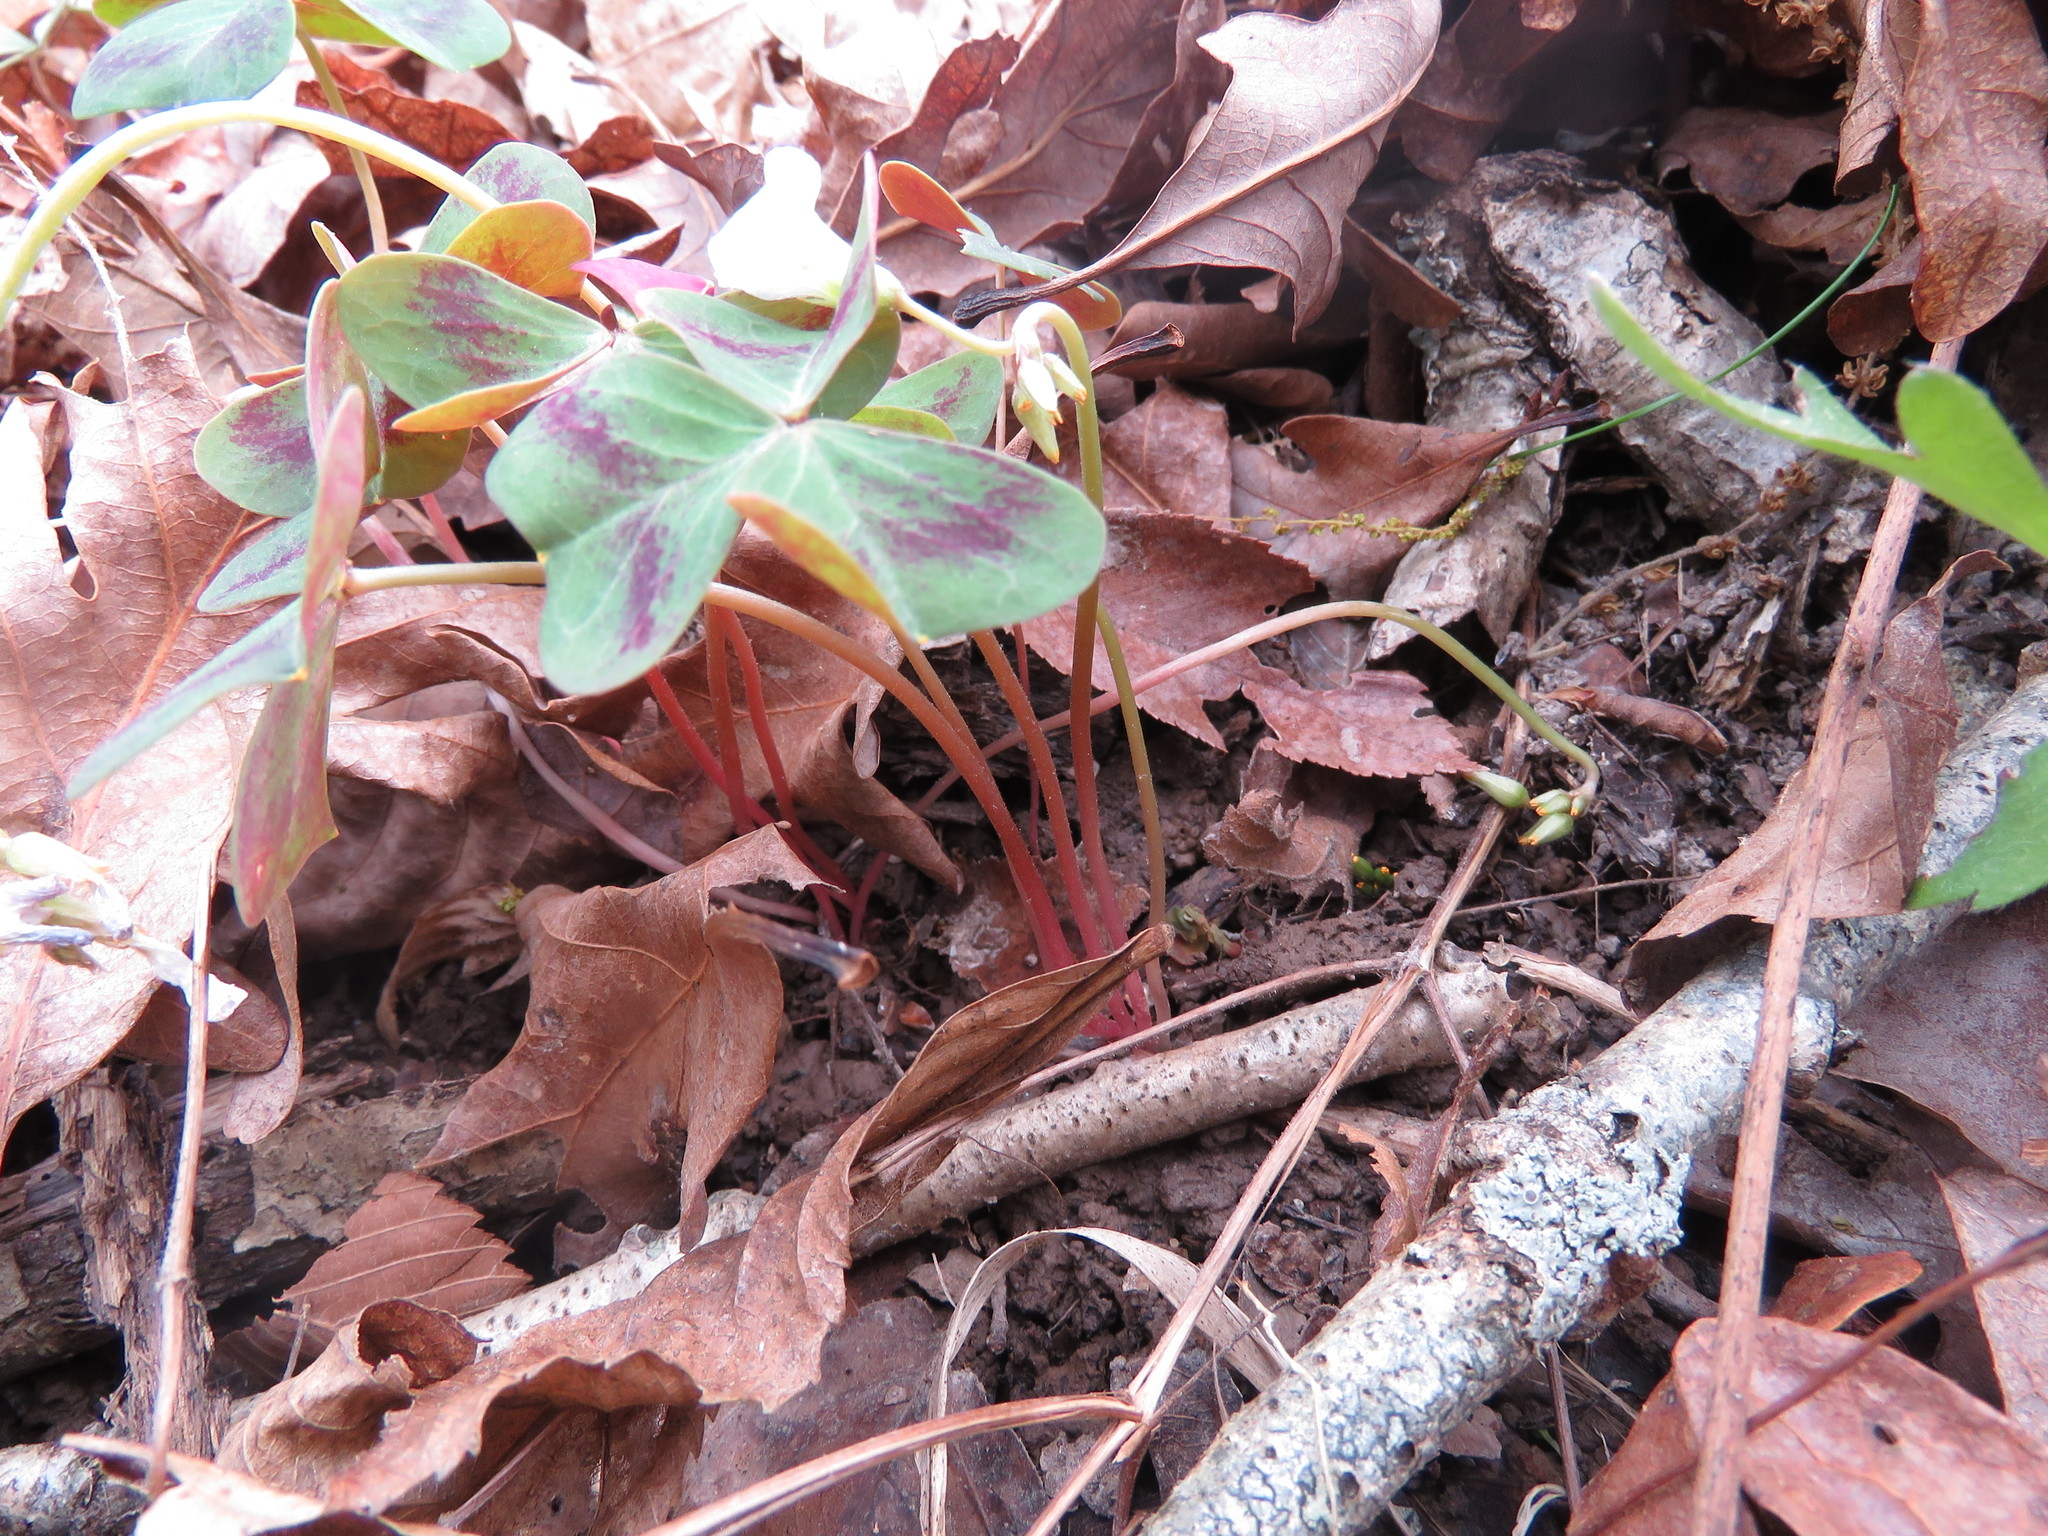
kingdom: Plantae
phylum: Tracheophyta
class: Magnoliopsida
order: Oxalidales
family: Oxalidaceae
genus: Oxalis
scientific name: Oxalis violacea
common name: Violet wood-sorrel
